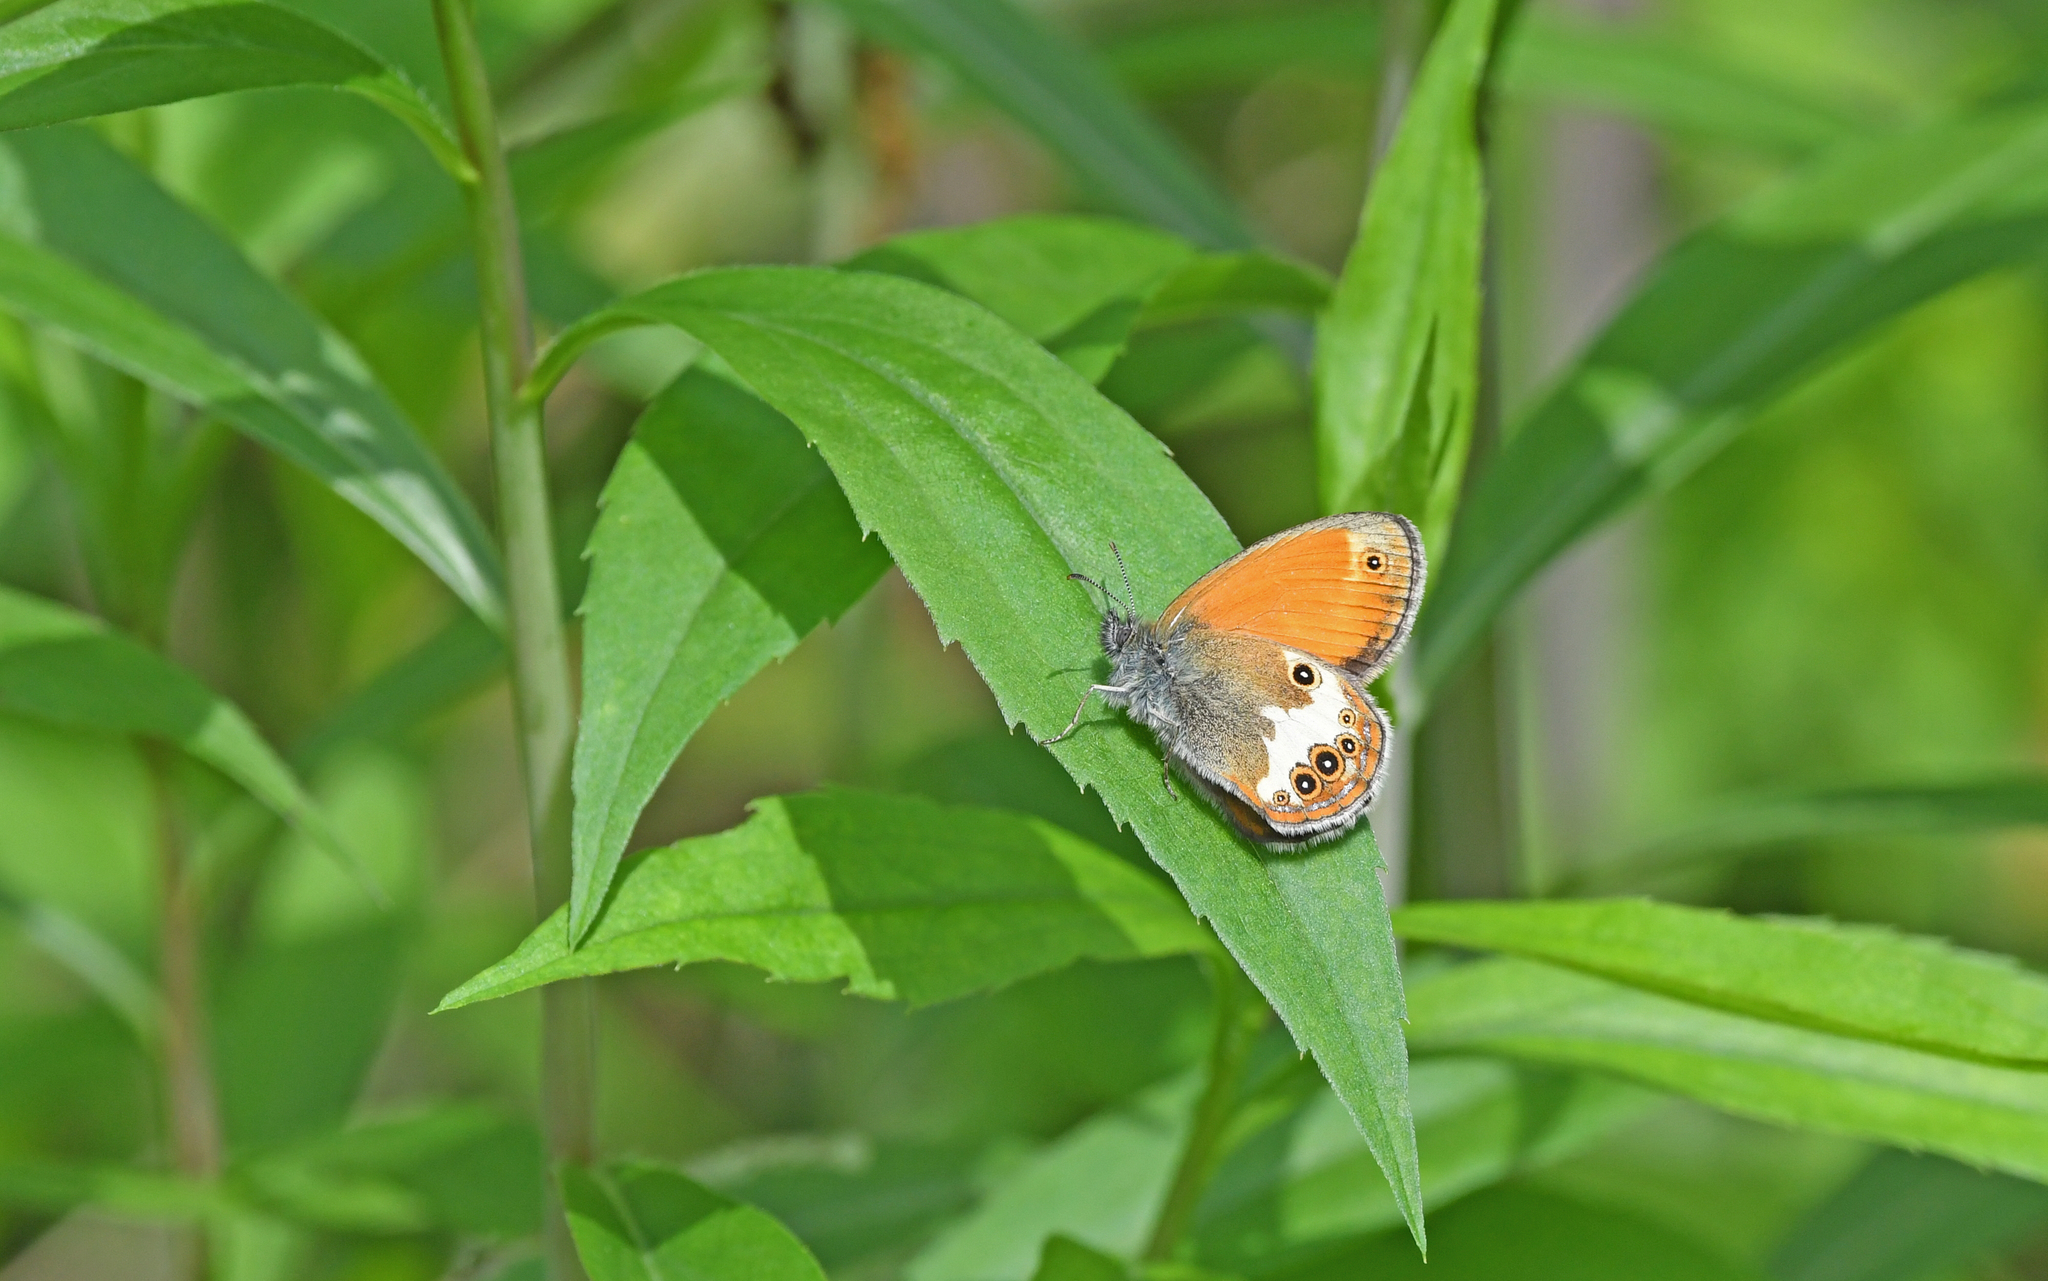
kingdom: Animalia
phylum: Arthropoda
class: Insecta
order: Lepidoptera
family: Nymphalidae
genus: Coenonympha
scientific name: Coenonympha arcania
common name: Pearly heath
